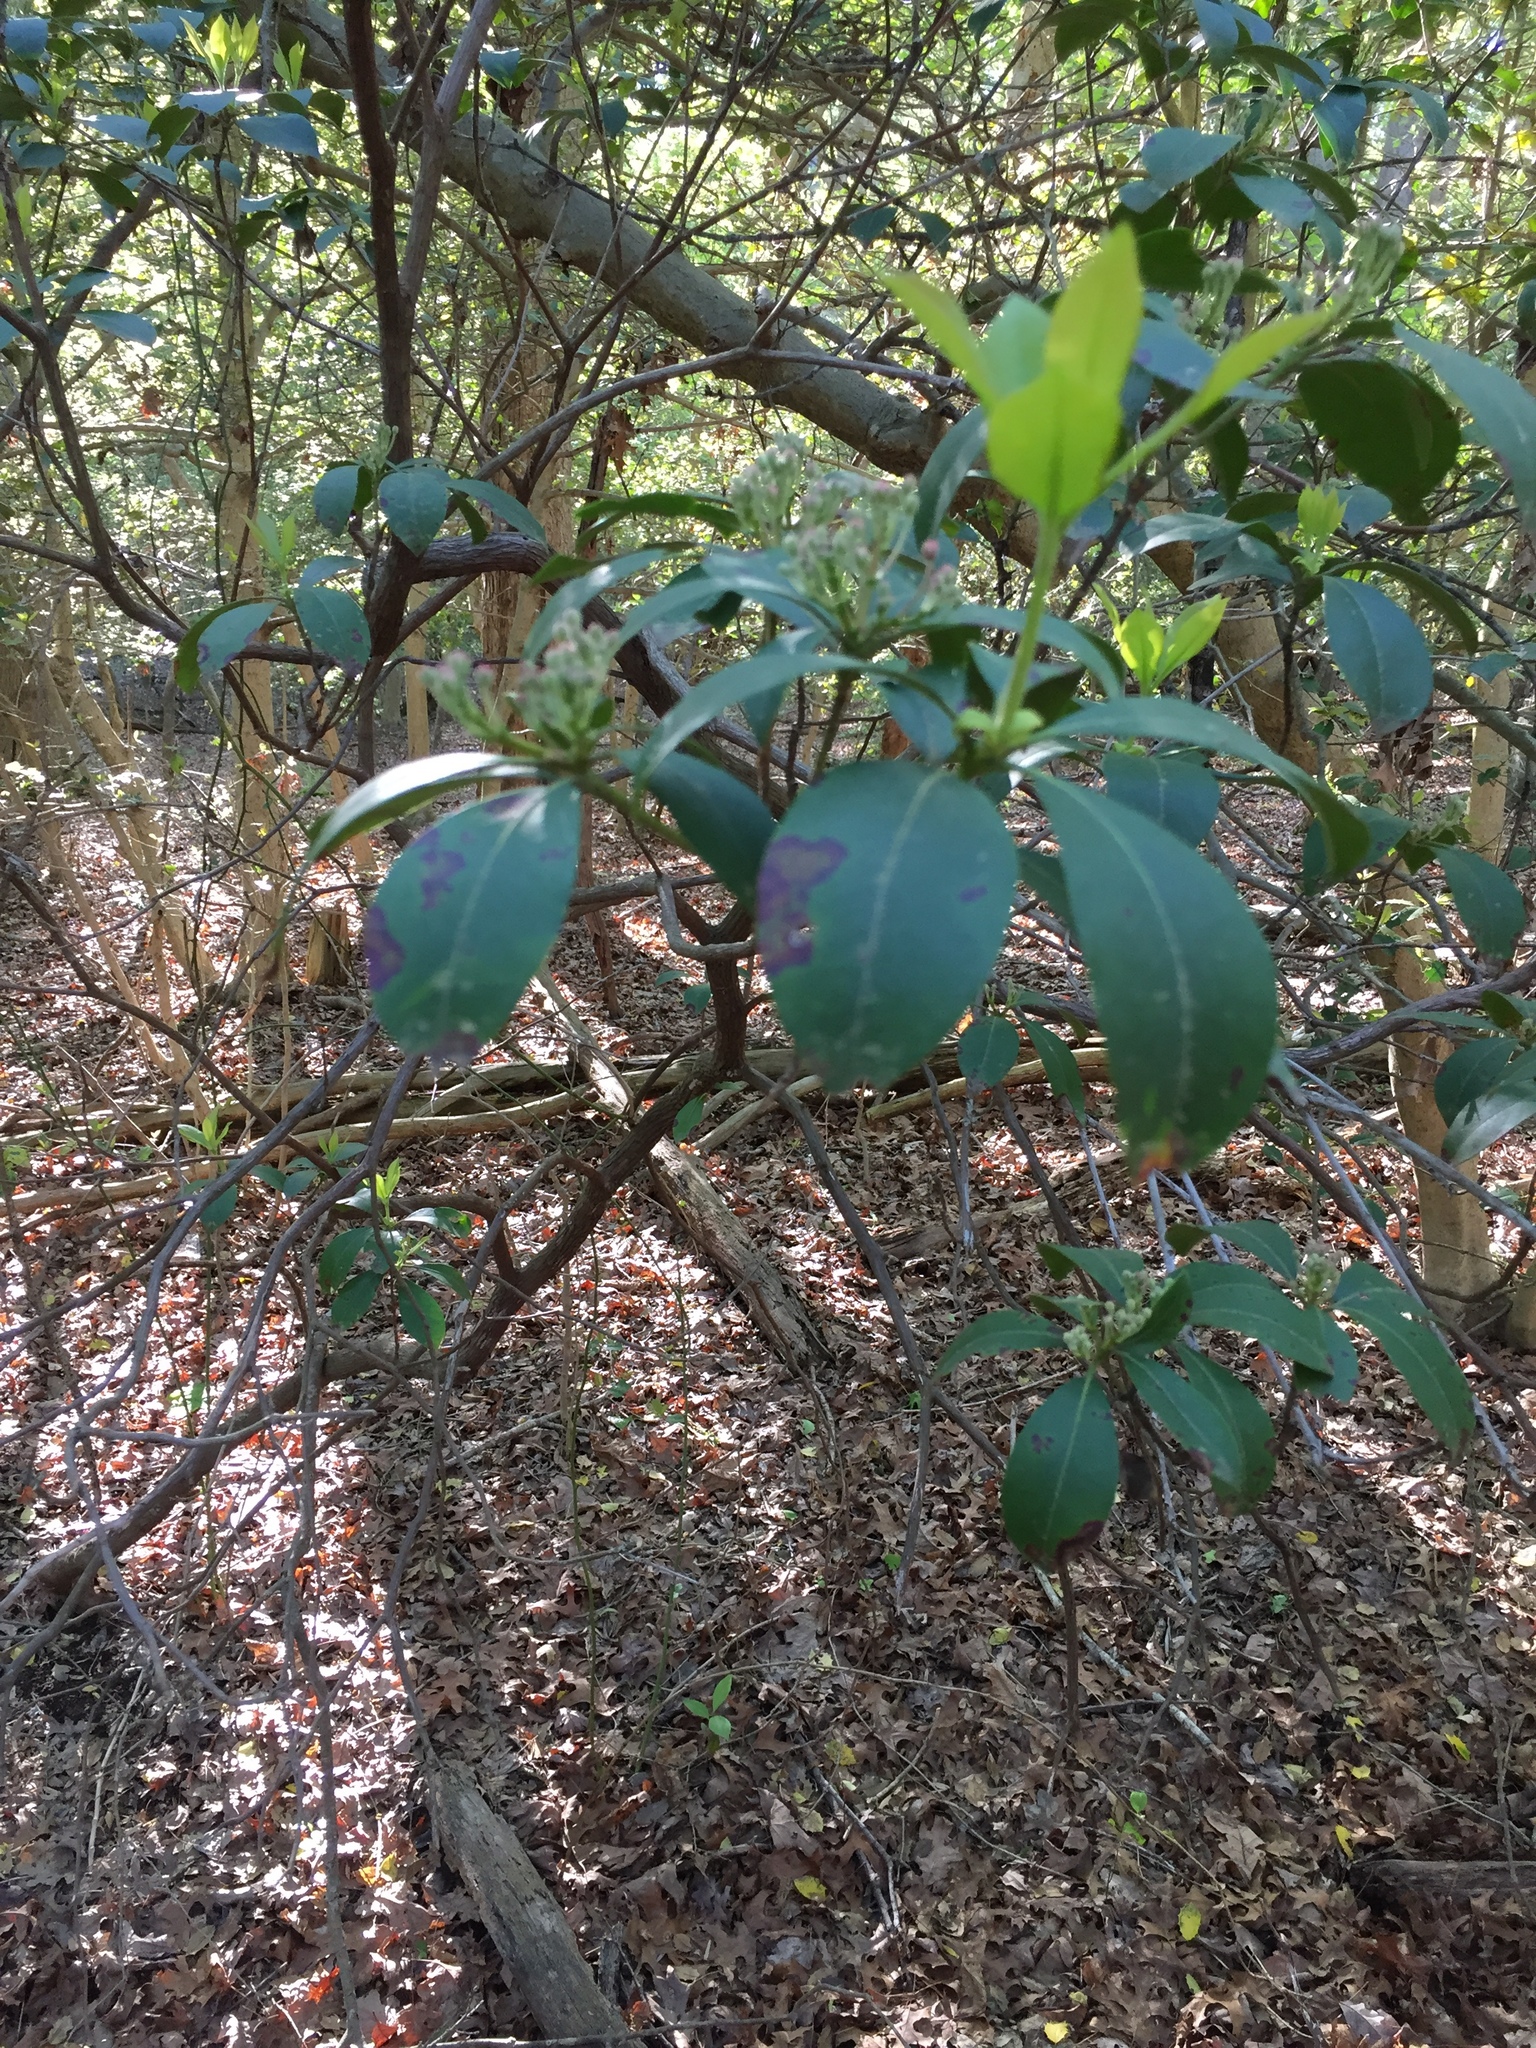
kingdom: Plantae
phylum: Tracheophyta
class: Magnoliopsida
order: Ericales
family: Ericaceae
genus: Kalmia
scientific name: Kalmia latifolia
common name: Mountain-laurel
